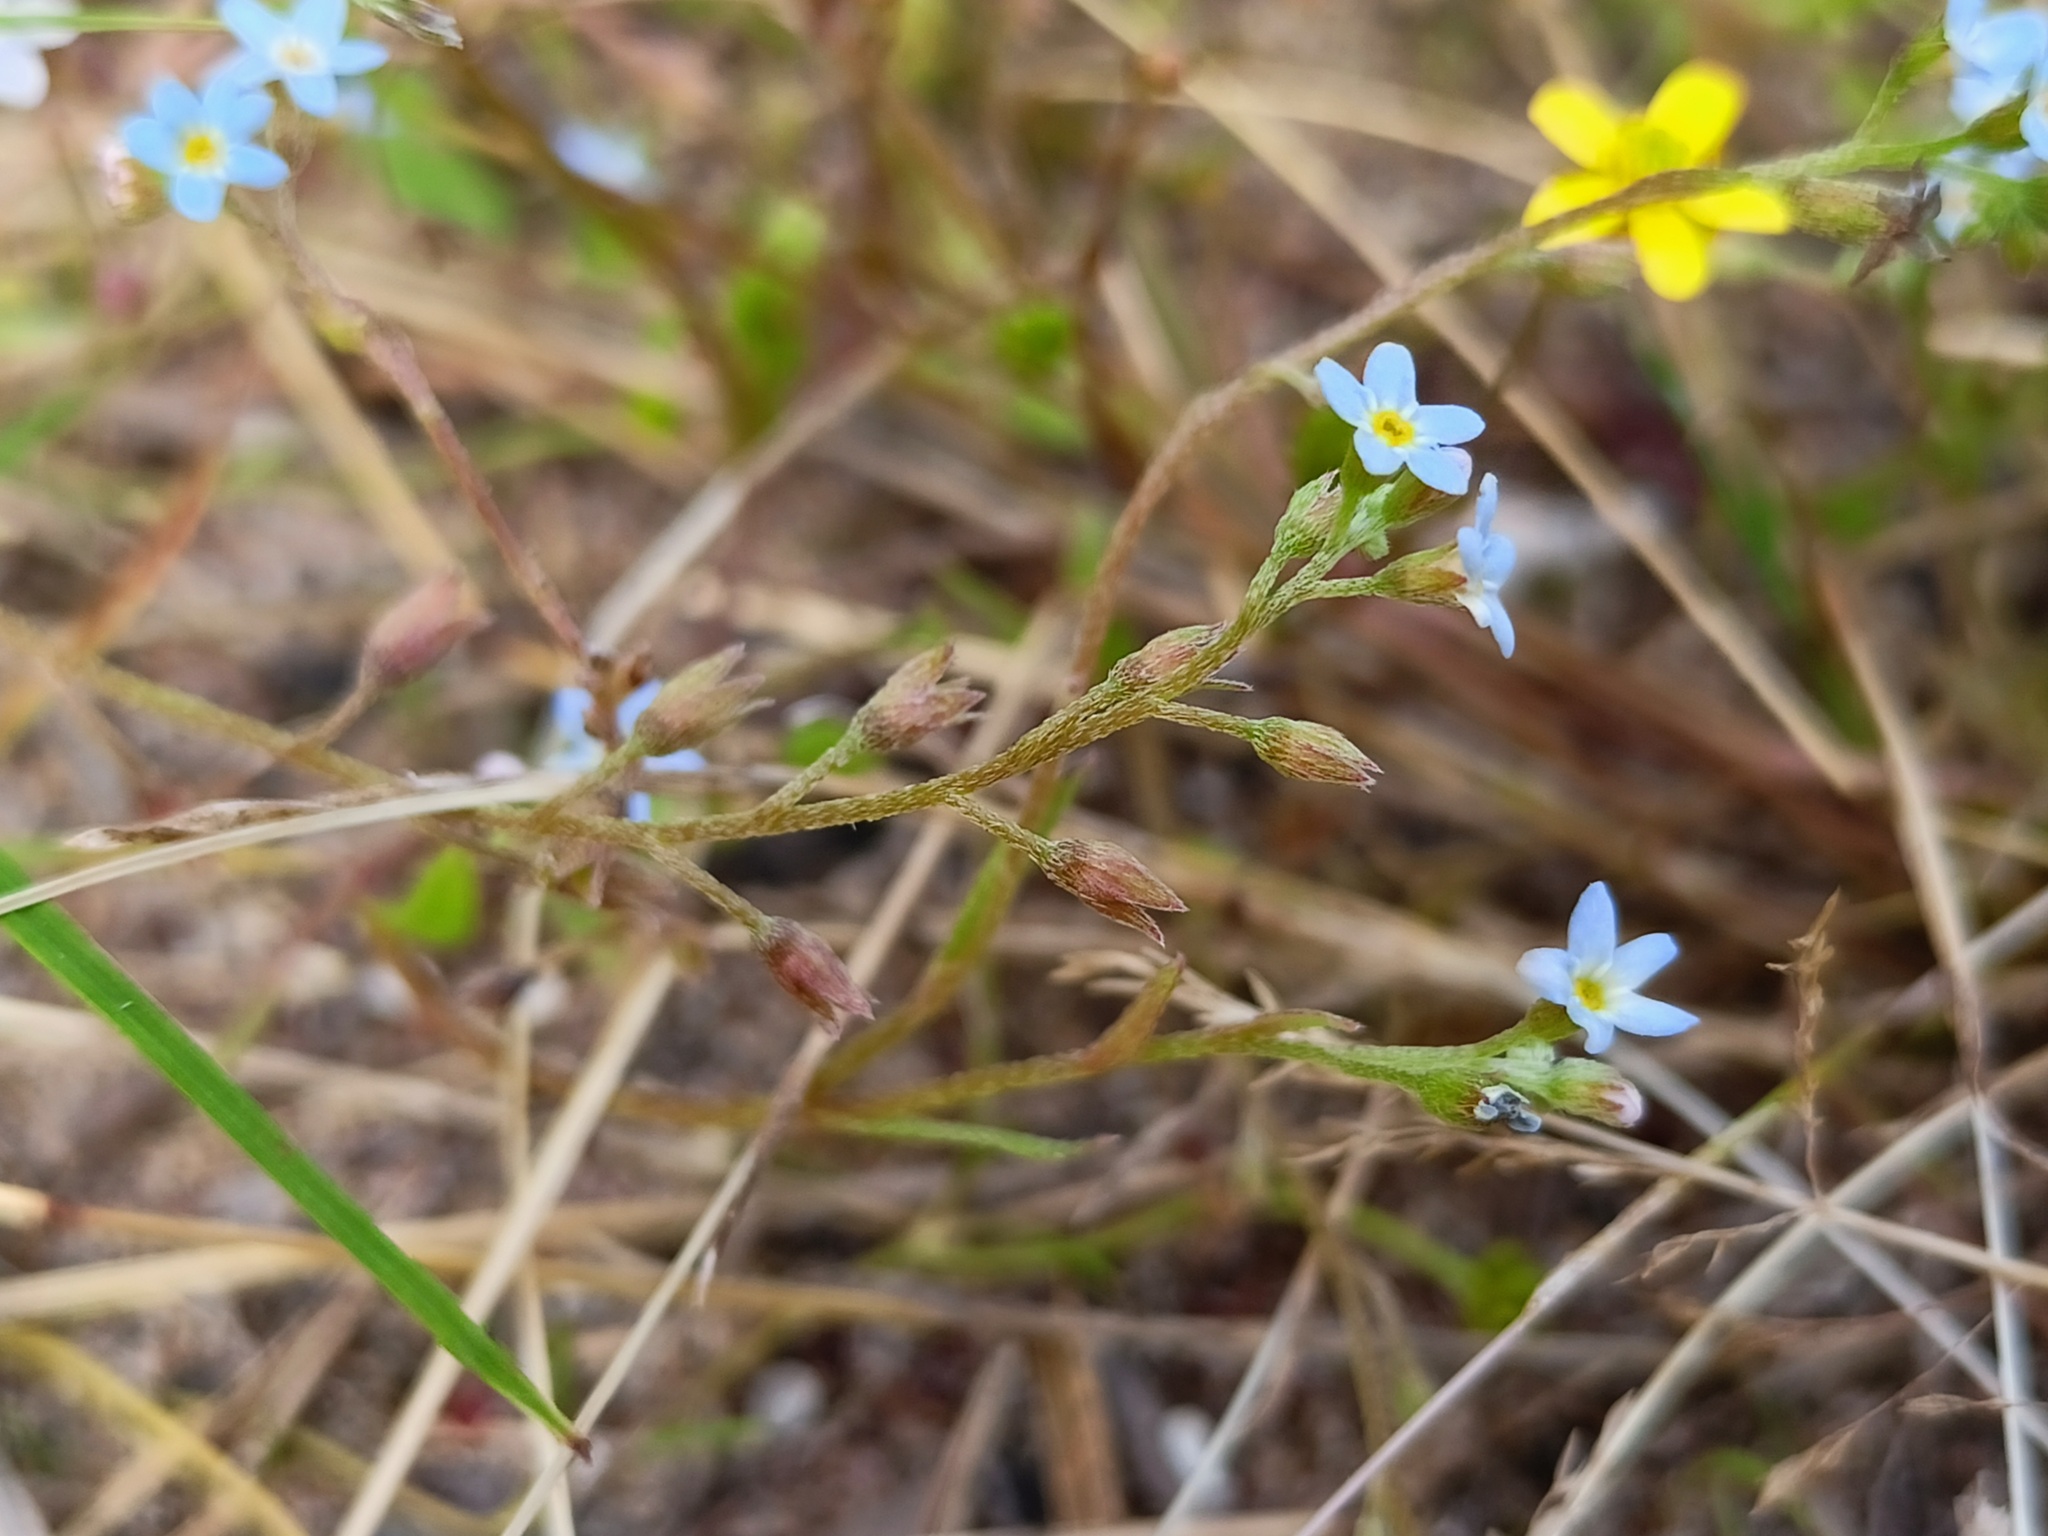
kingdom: Plantae
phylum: Tracheophyta
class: Magnoliopsida
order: Boraginales
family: Boraginaceae
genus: Myosotis
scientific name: Myosotis laxa
